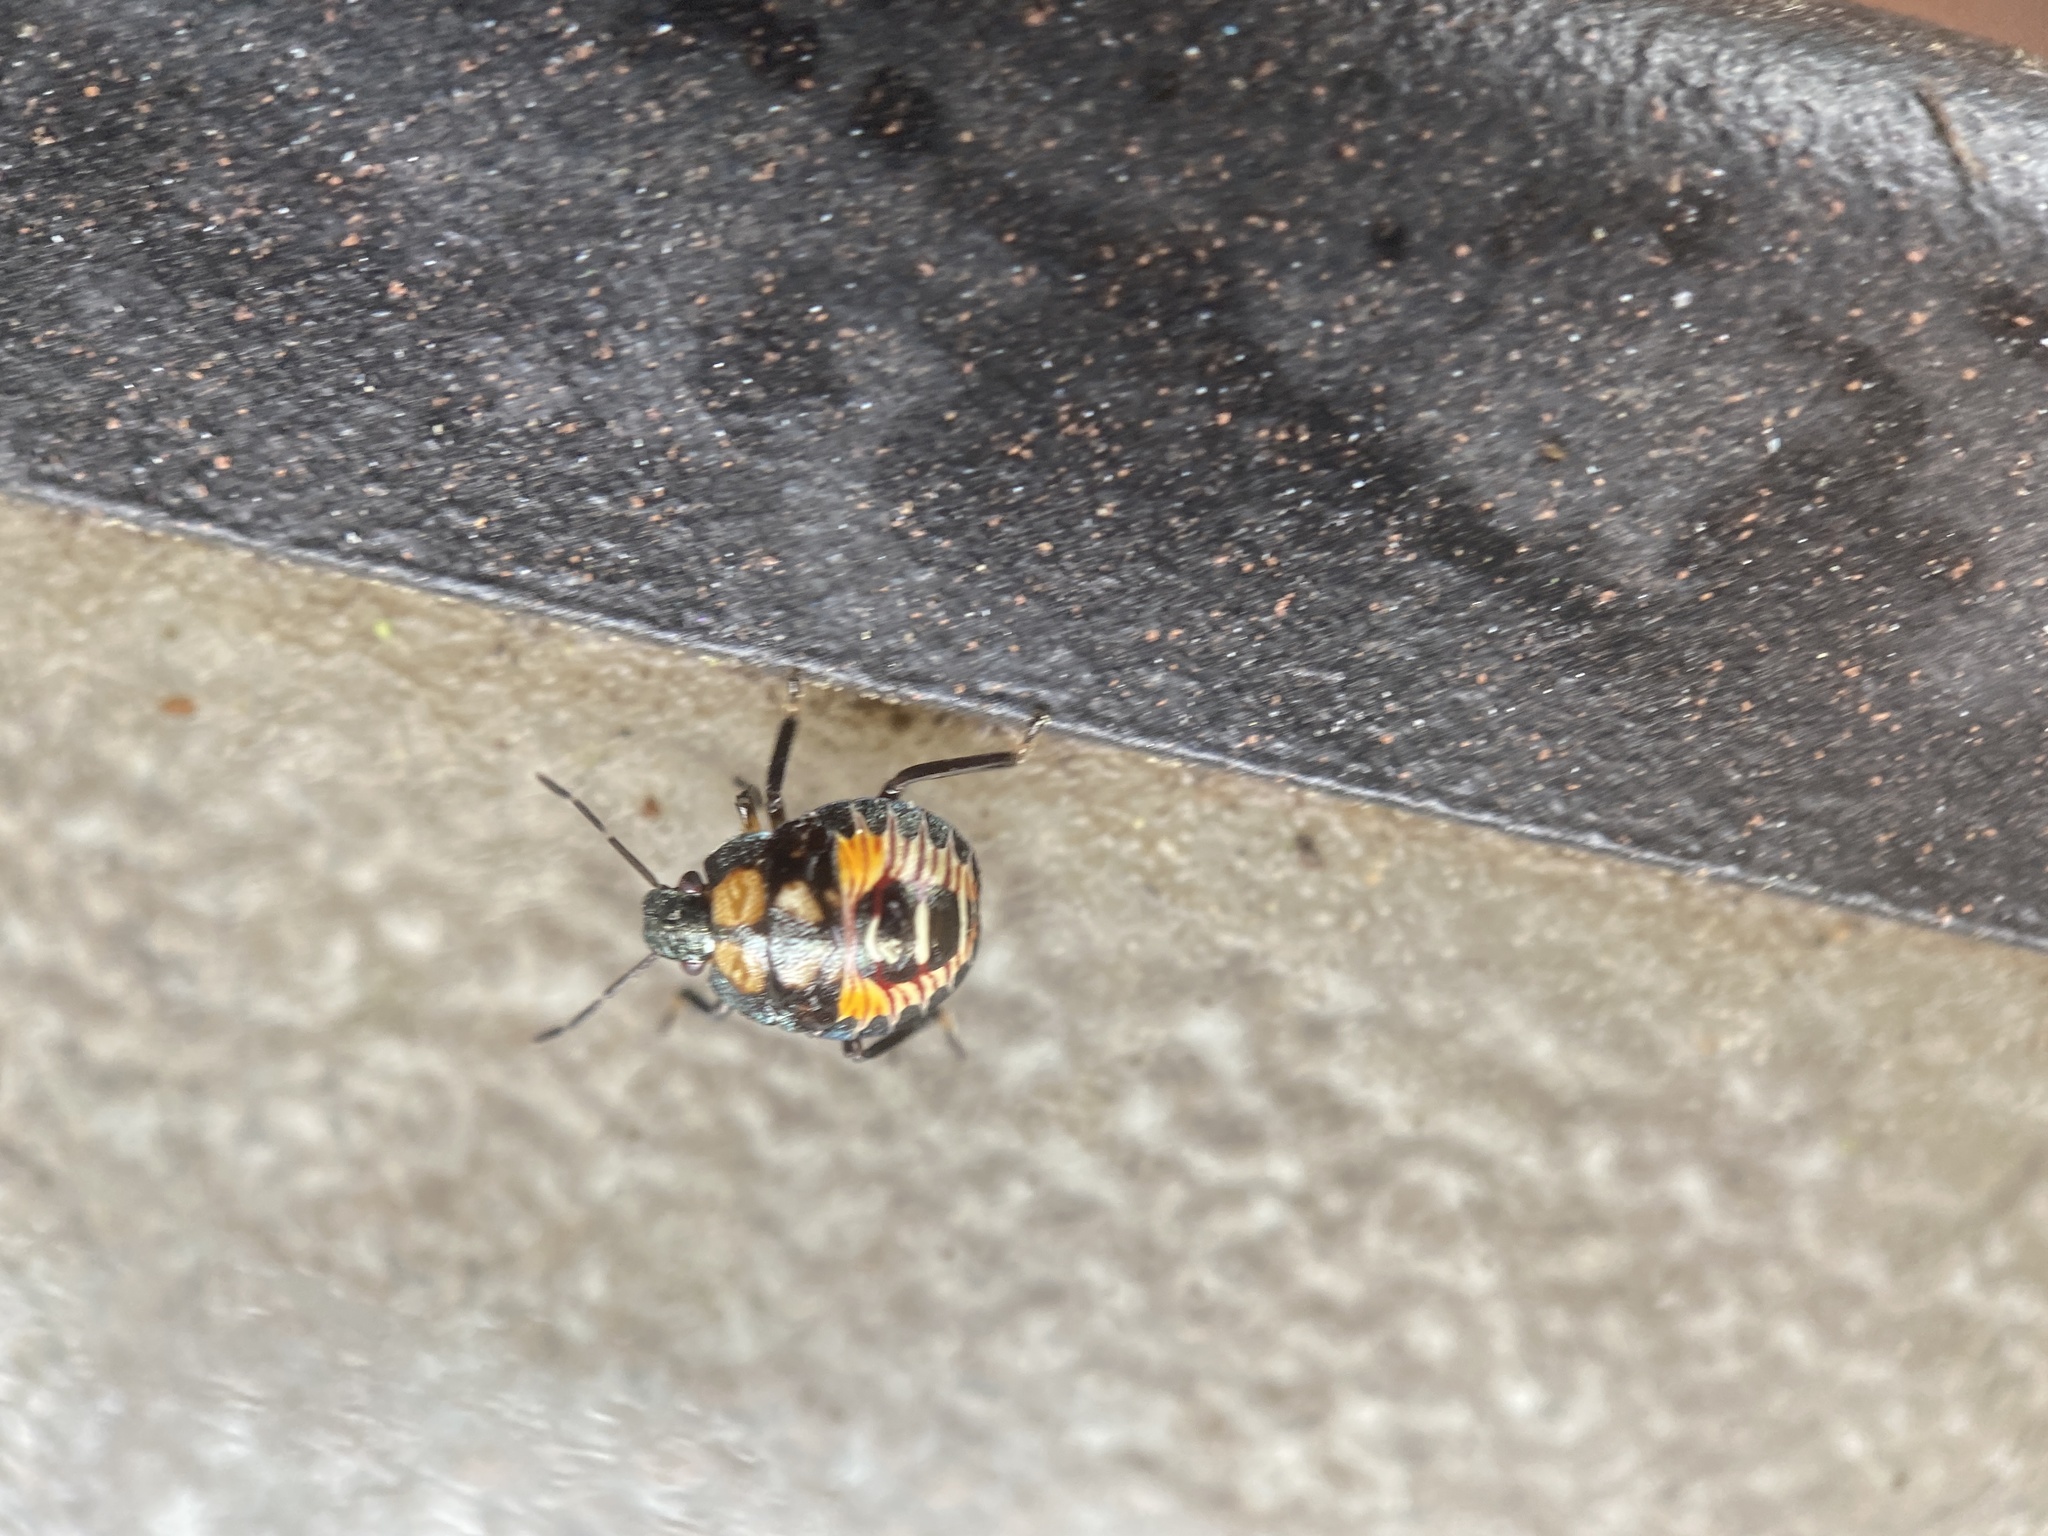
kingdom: Animalia
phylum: Arthropoda
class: Insecta
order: Hemiptera
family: Pentatomidae
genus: Podisus
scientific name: Podisus maculiventris
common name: Spined soldier bug
